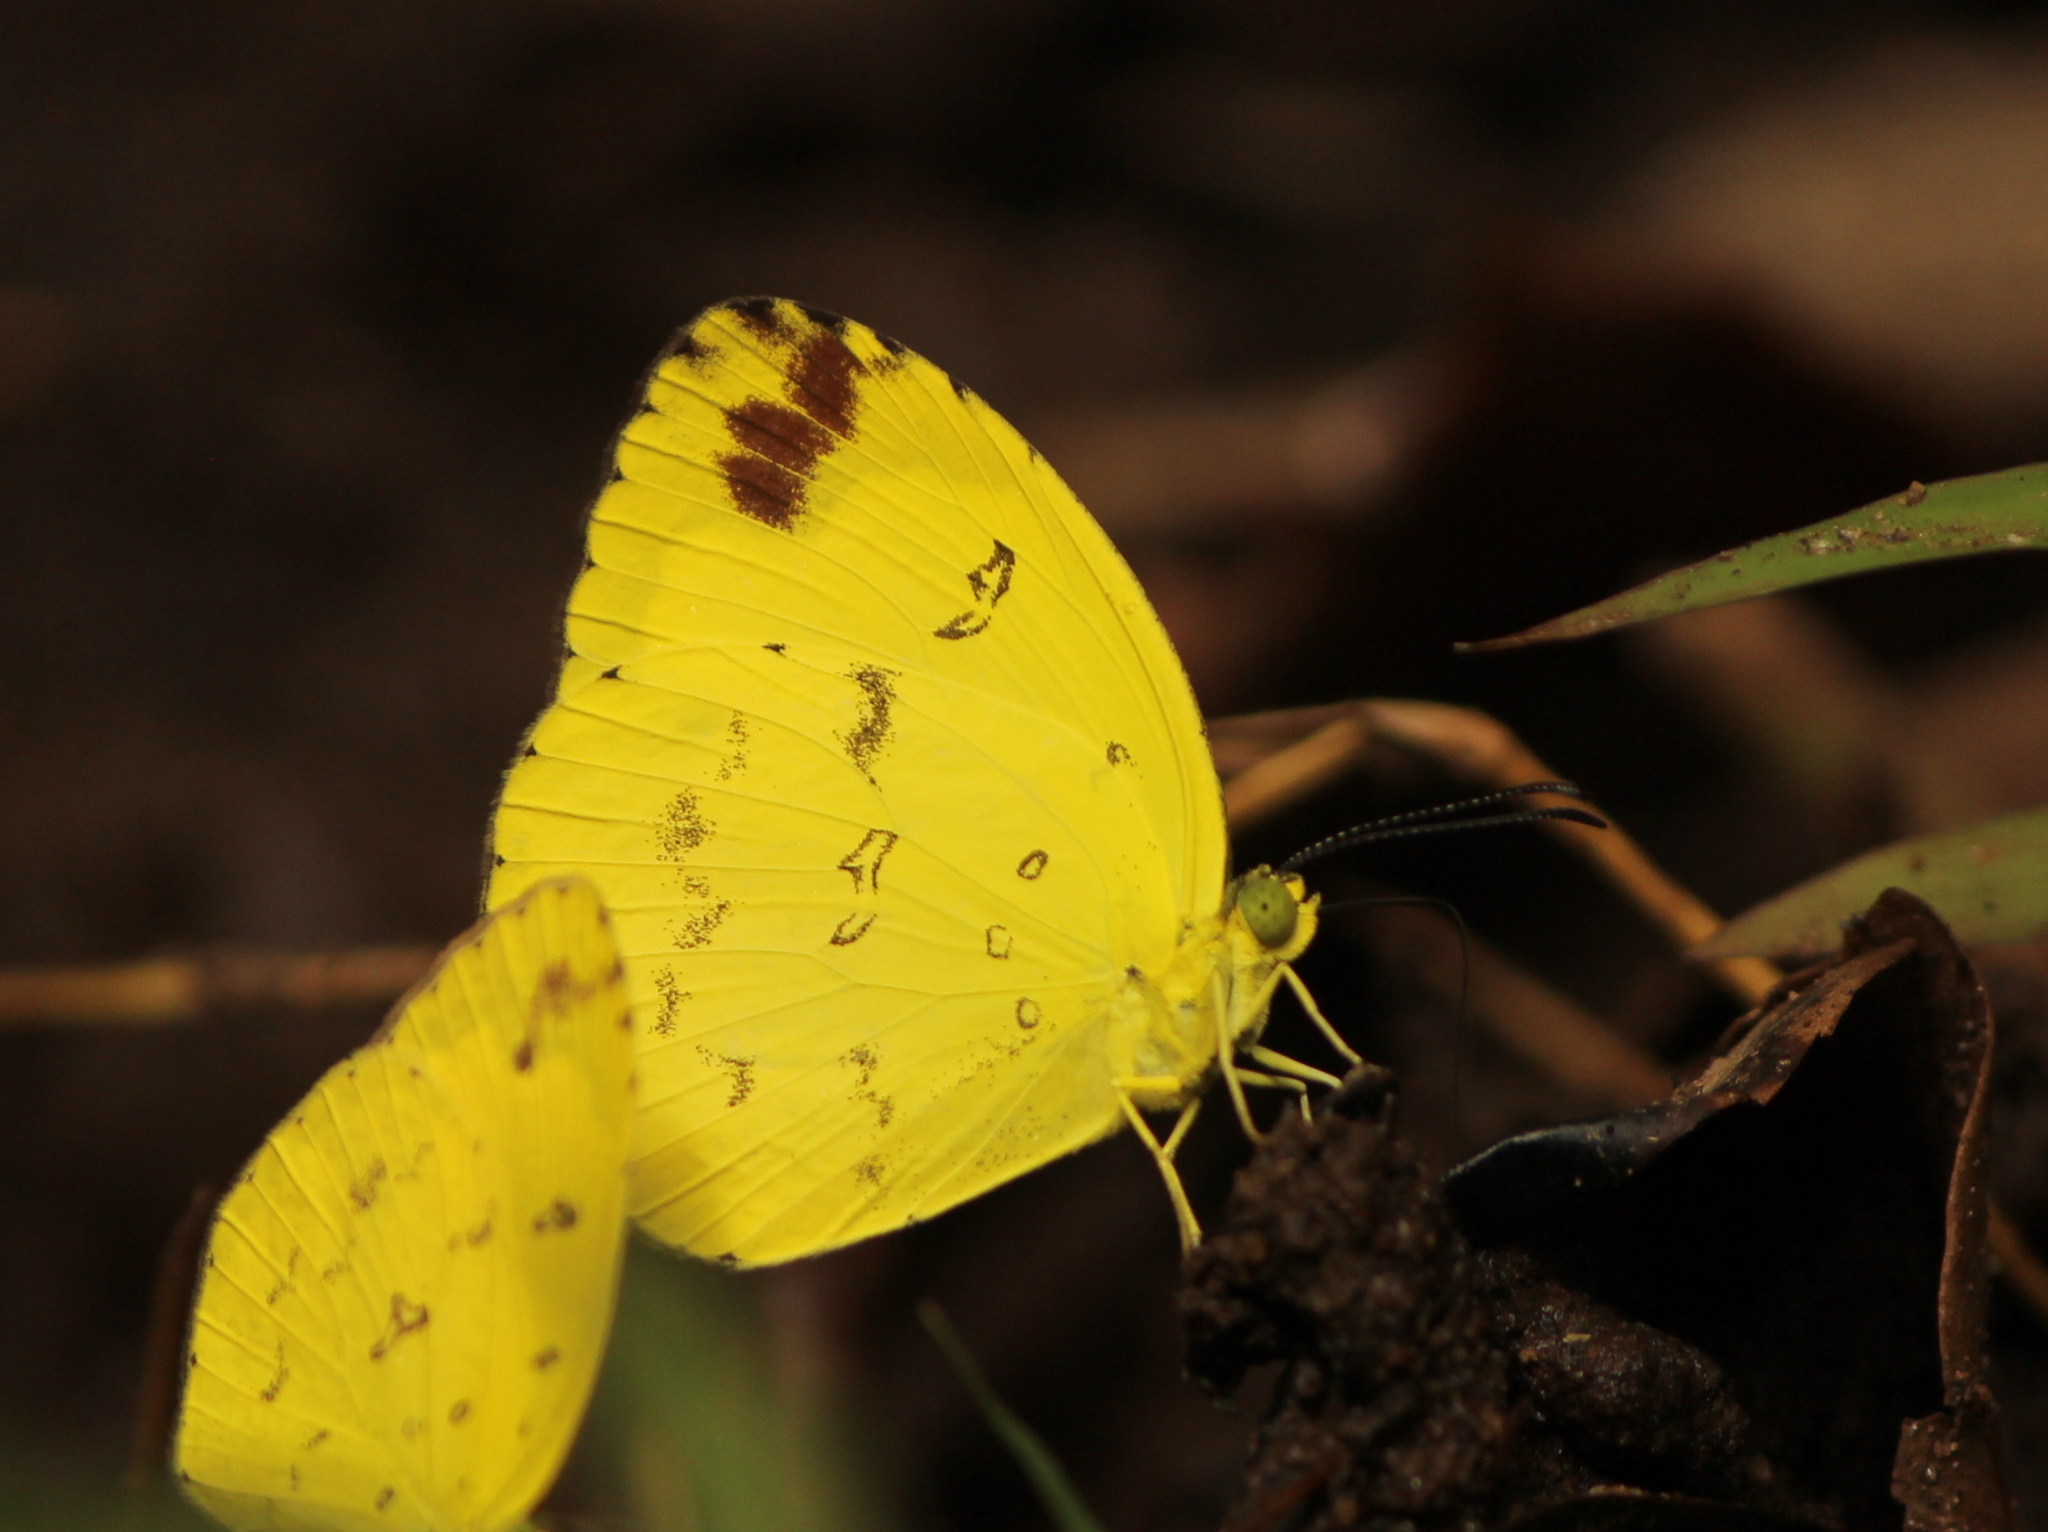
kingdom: Animalia
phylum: Arthropoda
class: Insecta
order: Lepidoptera
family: Pieridae
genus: Eurema
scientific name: Eurema andersoni
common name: One-spot yellow grass
